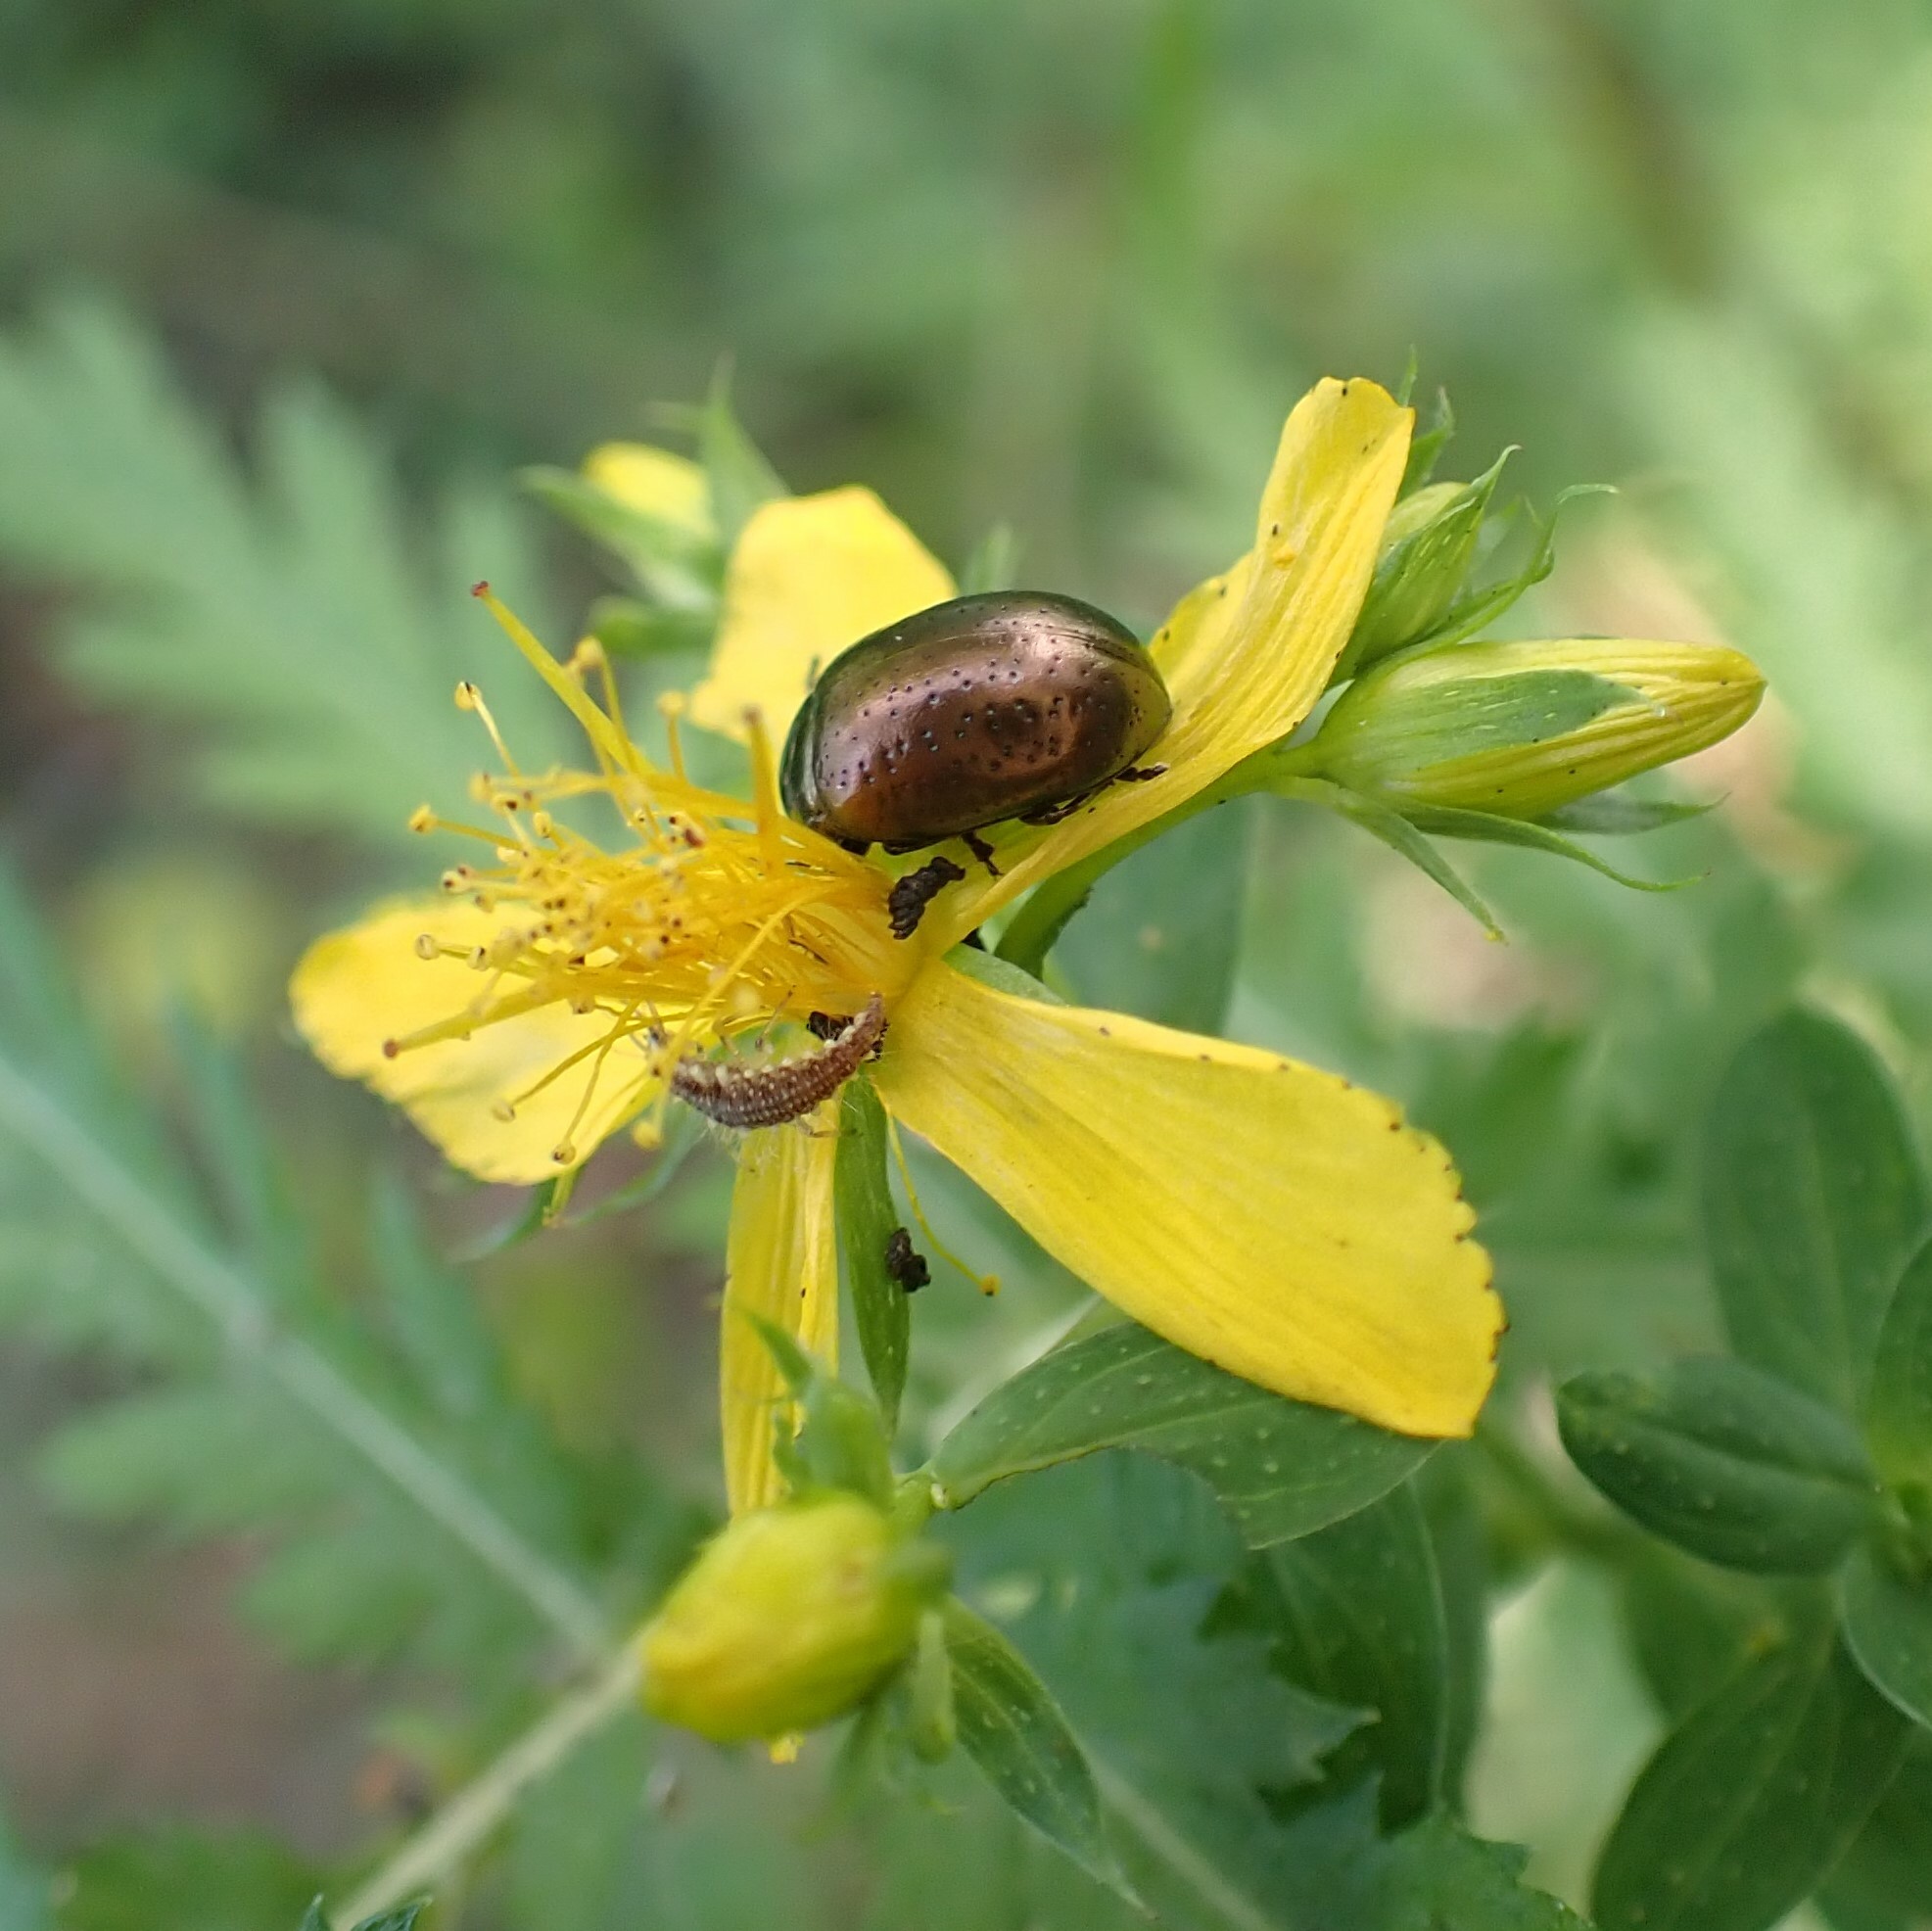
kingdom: Animalia
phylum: Arthropoda
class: Insecta
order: Coleoptera
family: Chrysomelidae
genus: Chrysolina
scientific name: Chrysolina hyperici
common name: St. johnswort beetle
